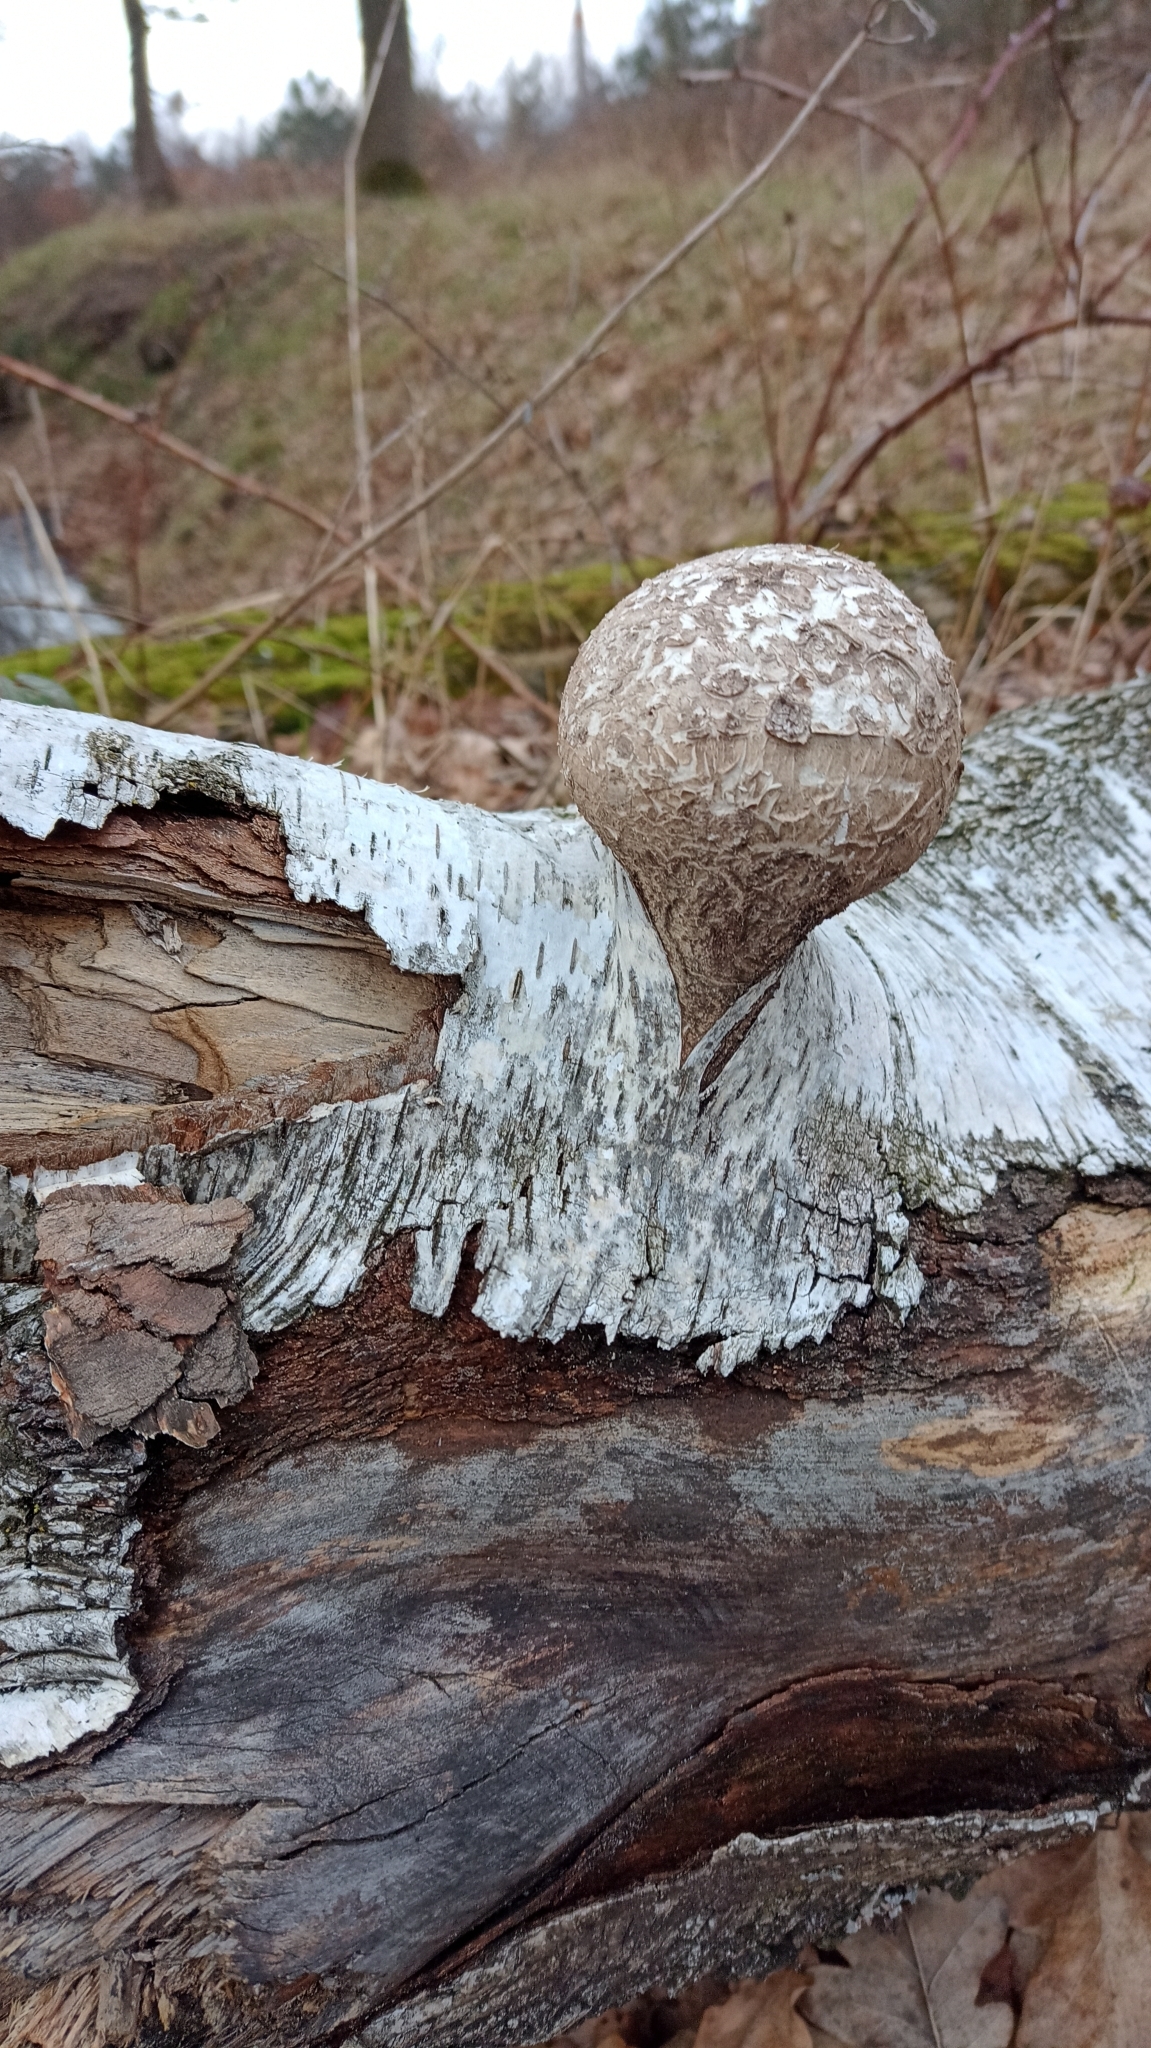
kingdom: Fungi
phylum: Basidiomycota
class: Agaricomycetes
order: Polyporales
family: Fomitopsidaceae
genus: Fomitopsis
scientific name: Fomitopsis betulina
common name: Birch polypore
